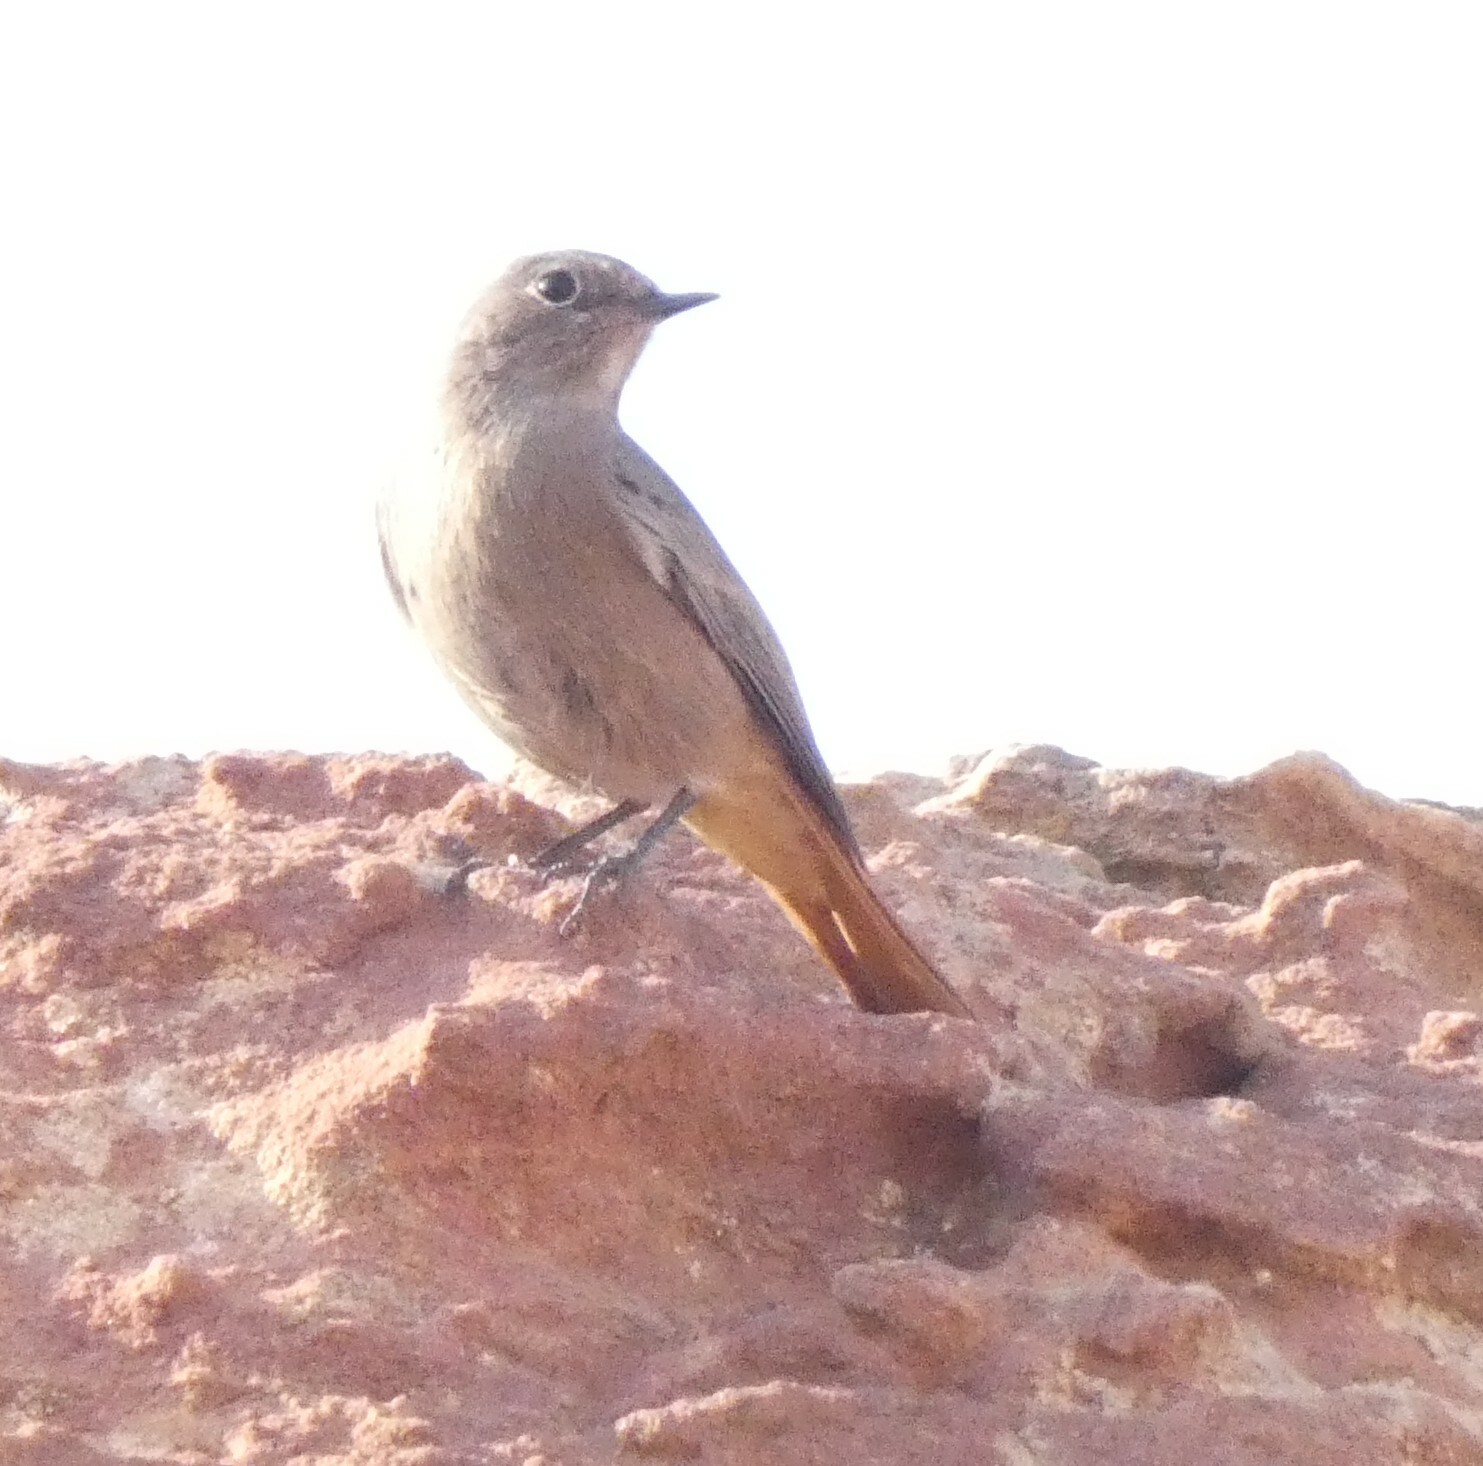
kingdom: Animalia
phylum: Chordata
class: Aves
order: Passeriformes
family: Muscicapidae
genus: Phoenicurus
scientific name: Phoenicurus ochruros
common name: Black redstart
